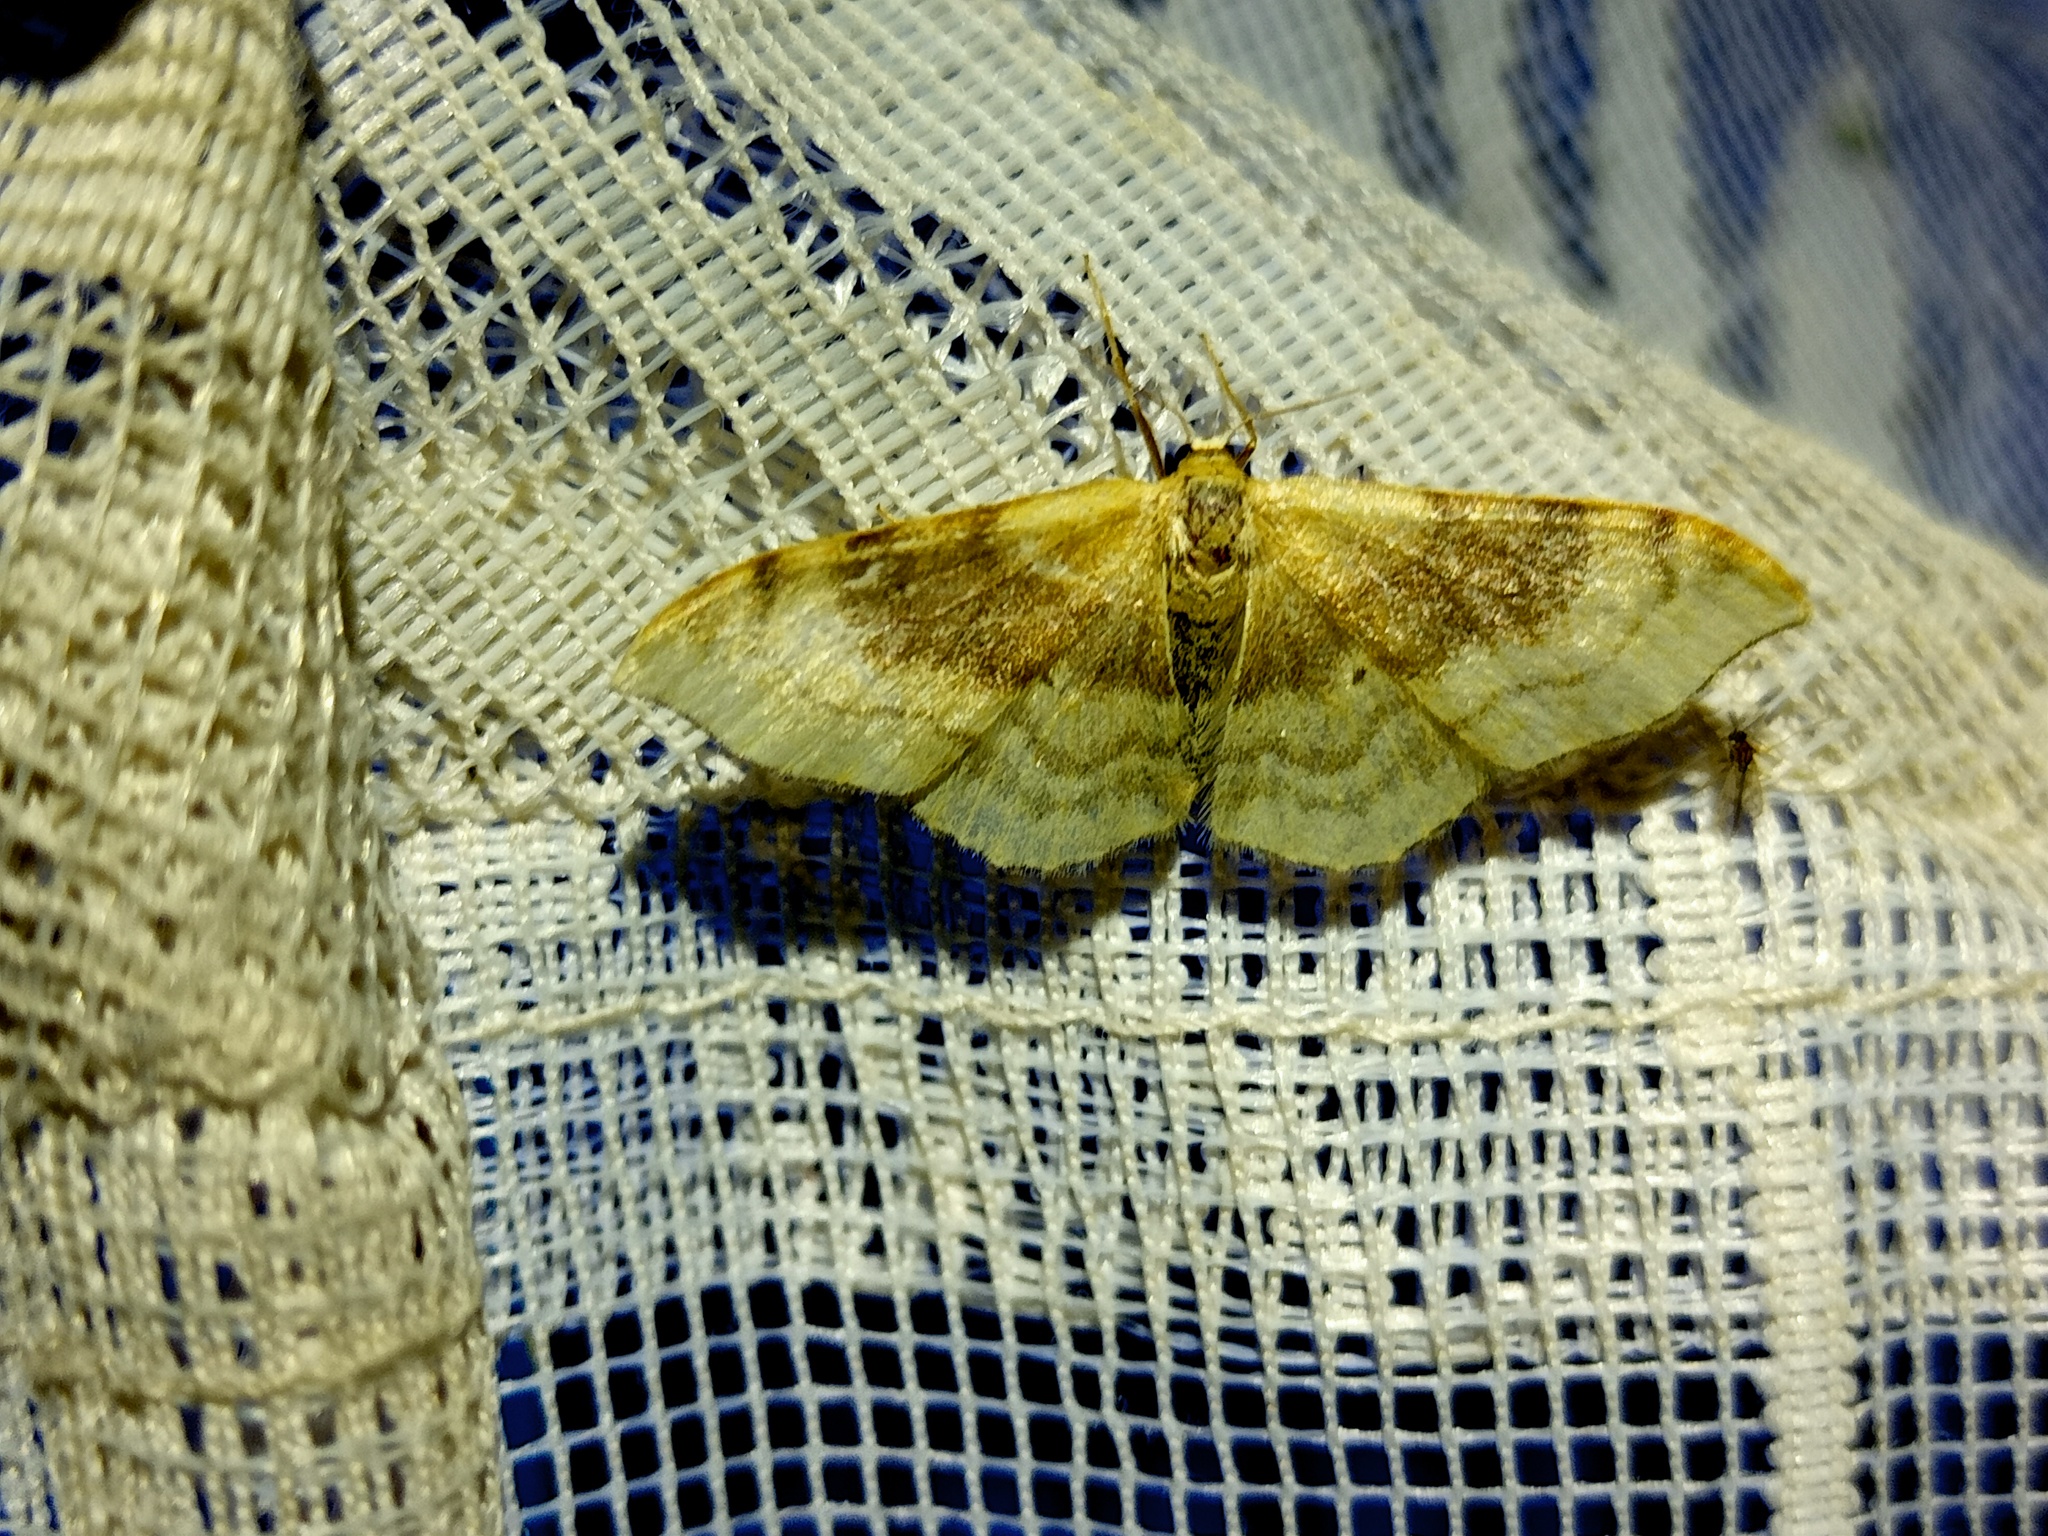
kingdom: Animalia
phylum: Arthropoda
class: Insecta
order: Lepidoptera
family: Geometridae
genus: Idaea
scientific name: Idaea degeneraria
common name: Portland ribbon wave
